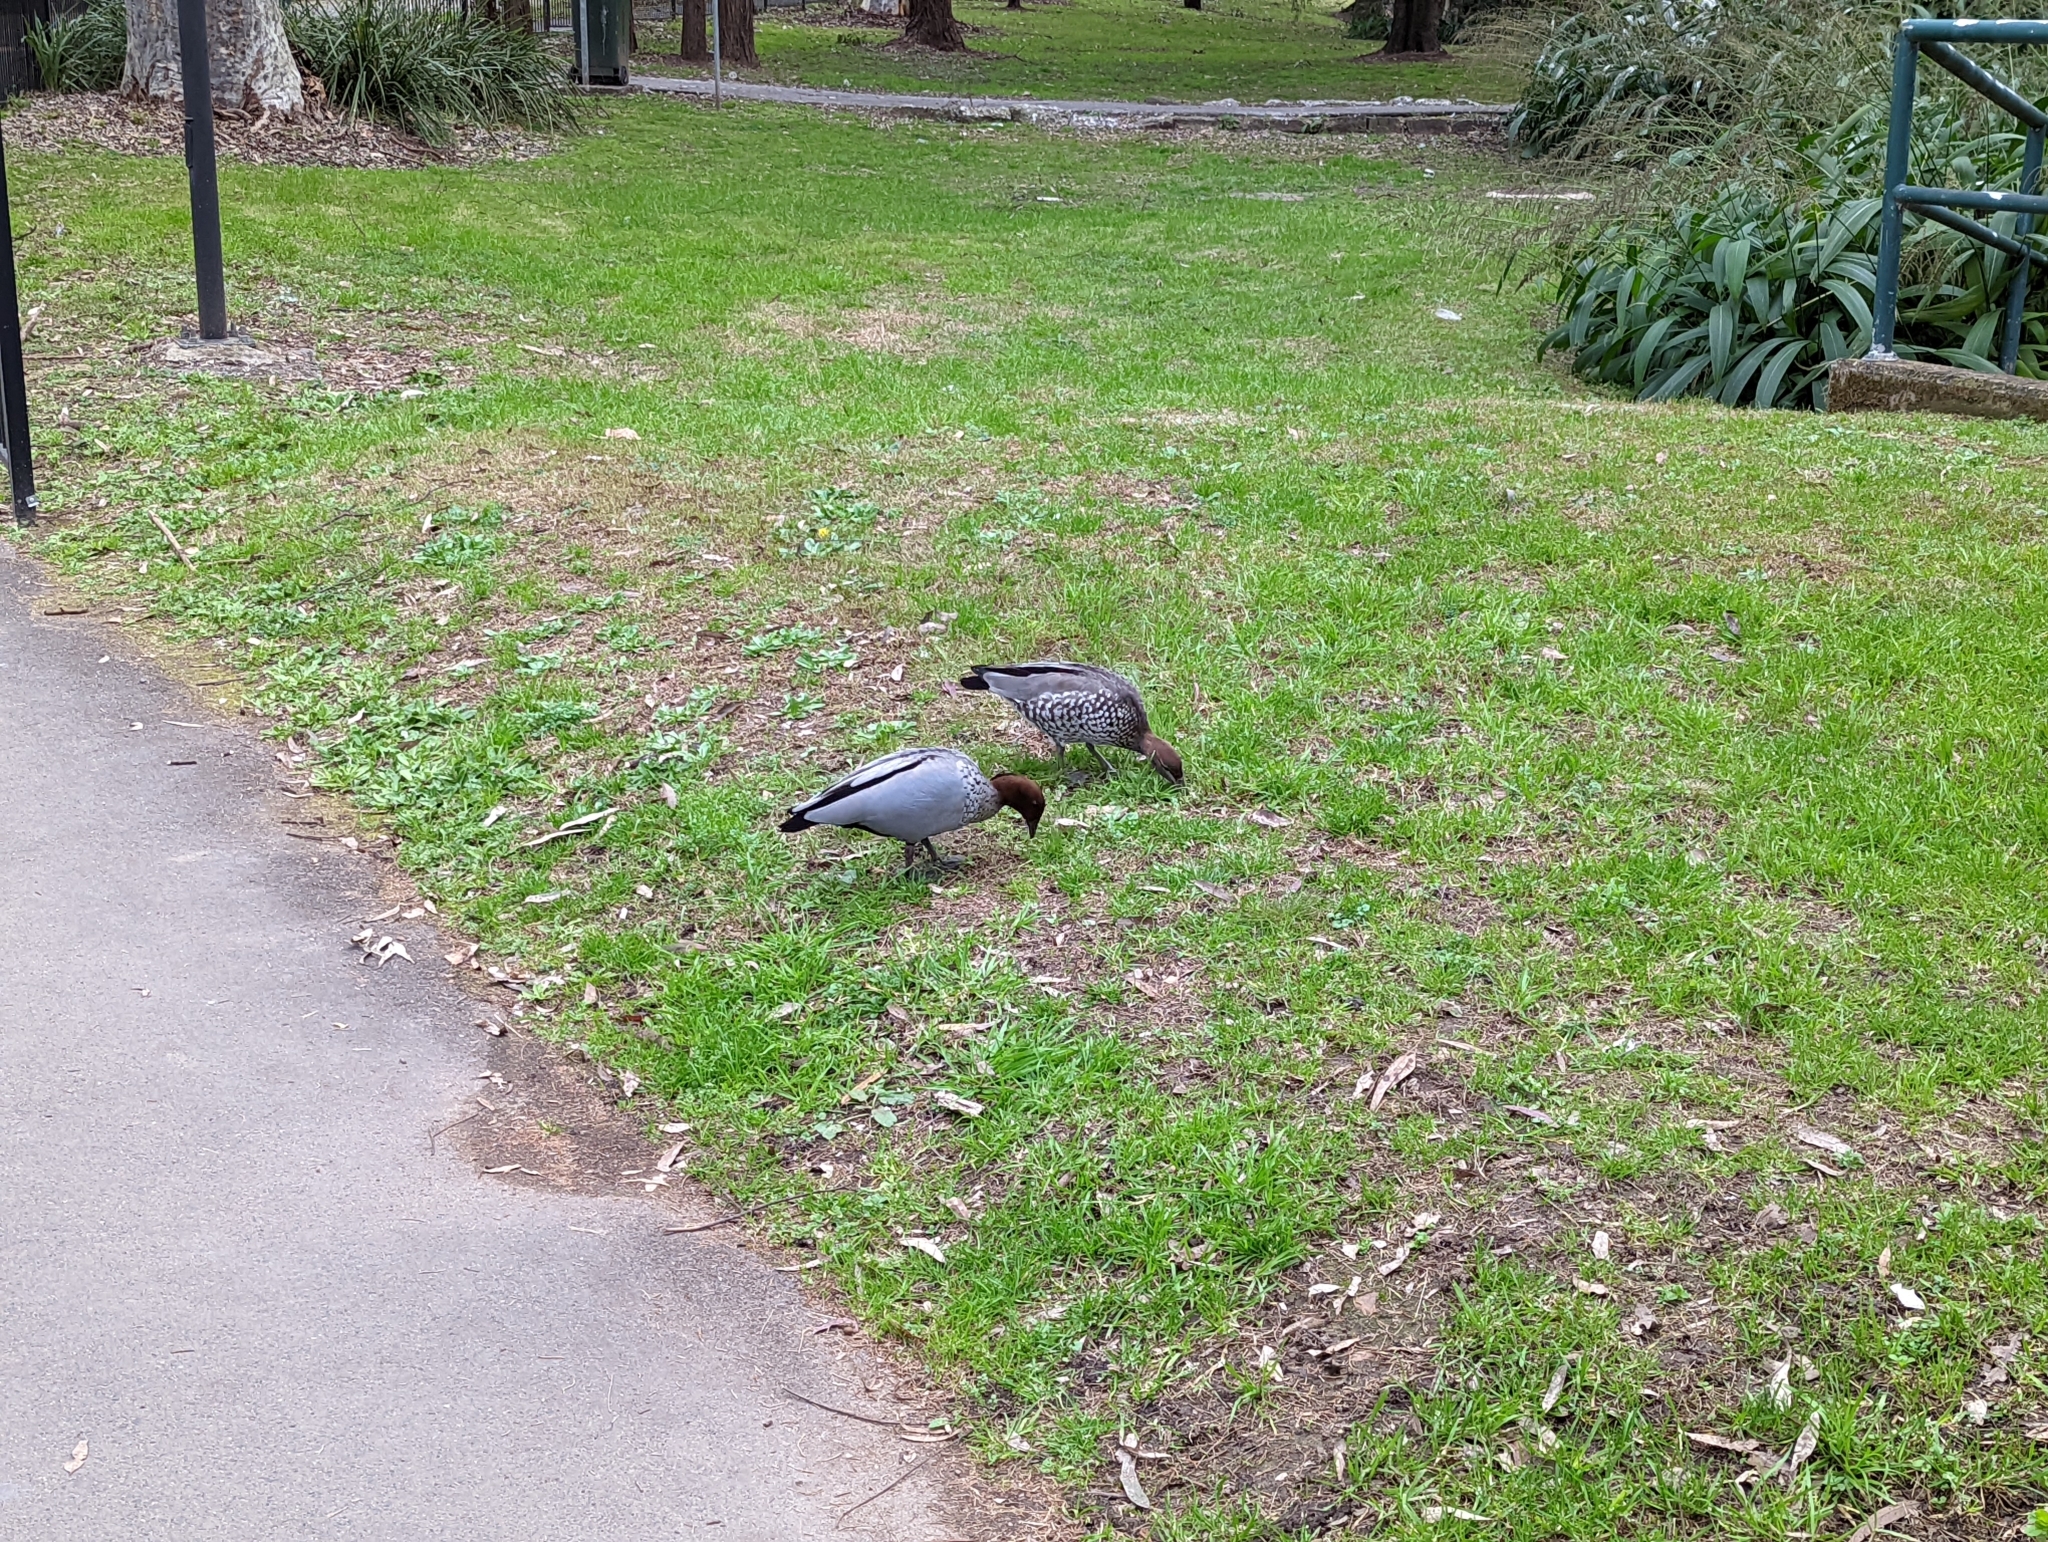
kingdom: Animalia
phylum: Chordata
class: Aves
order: Anseriformes
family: Anatidae
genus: Chenonetta
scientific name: Chenonetta jubata
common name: Maned duck
